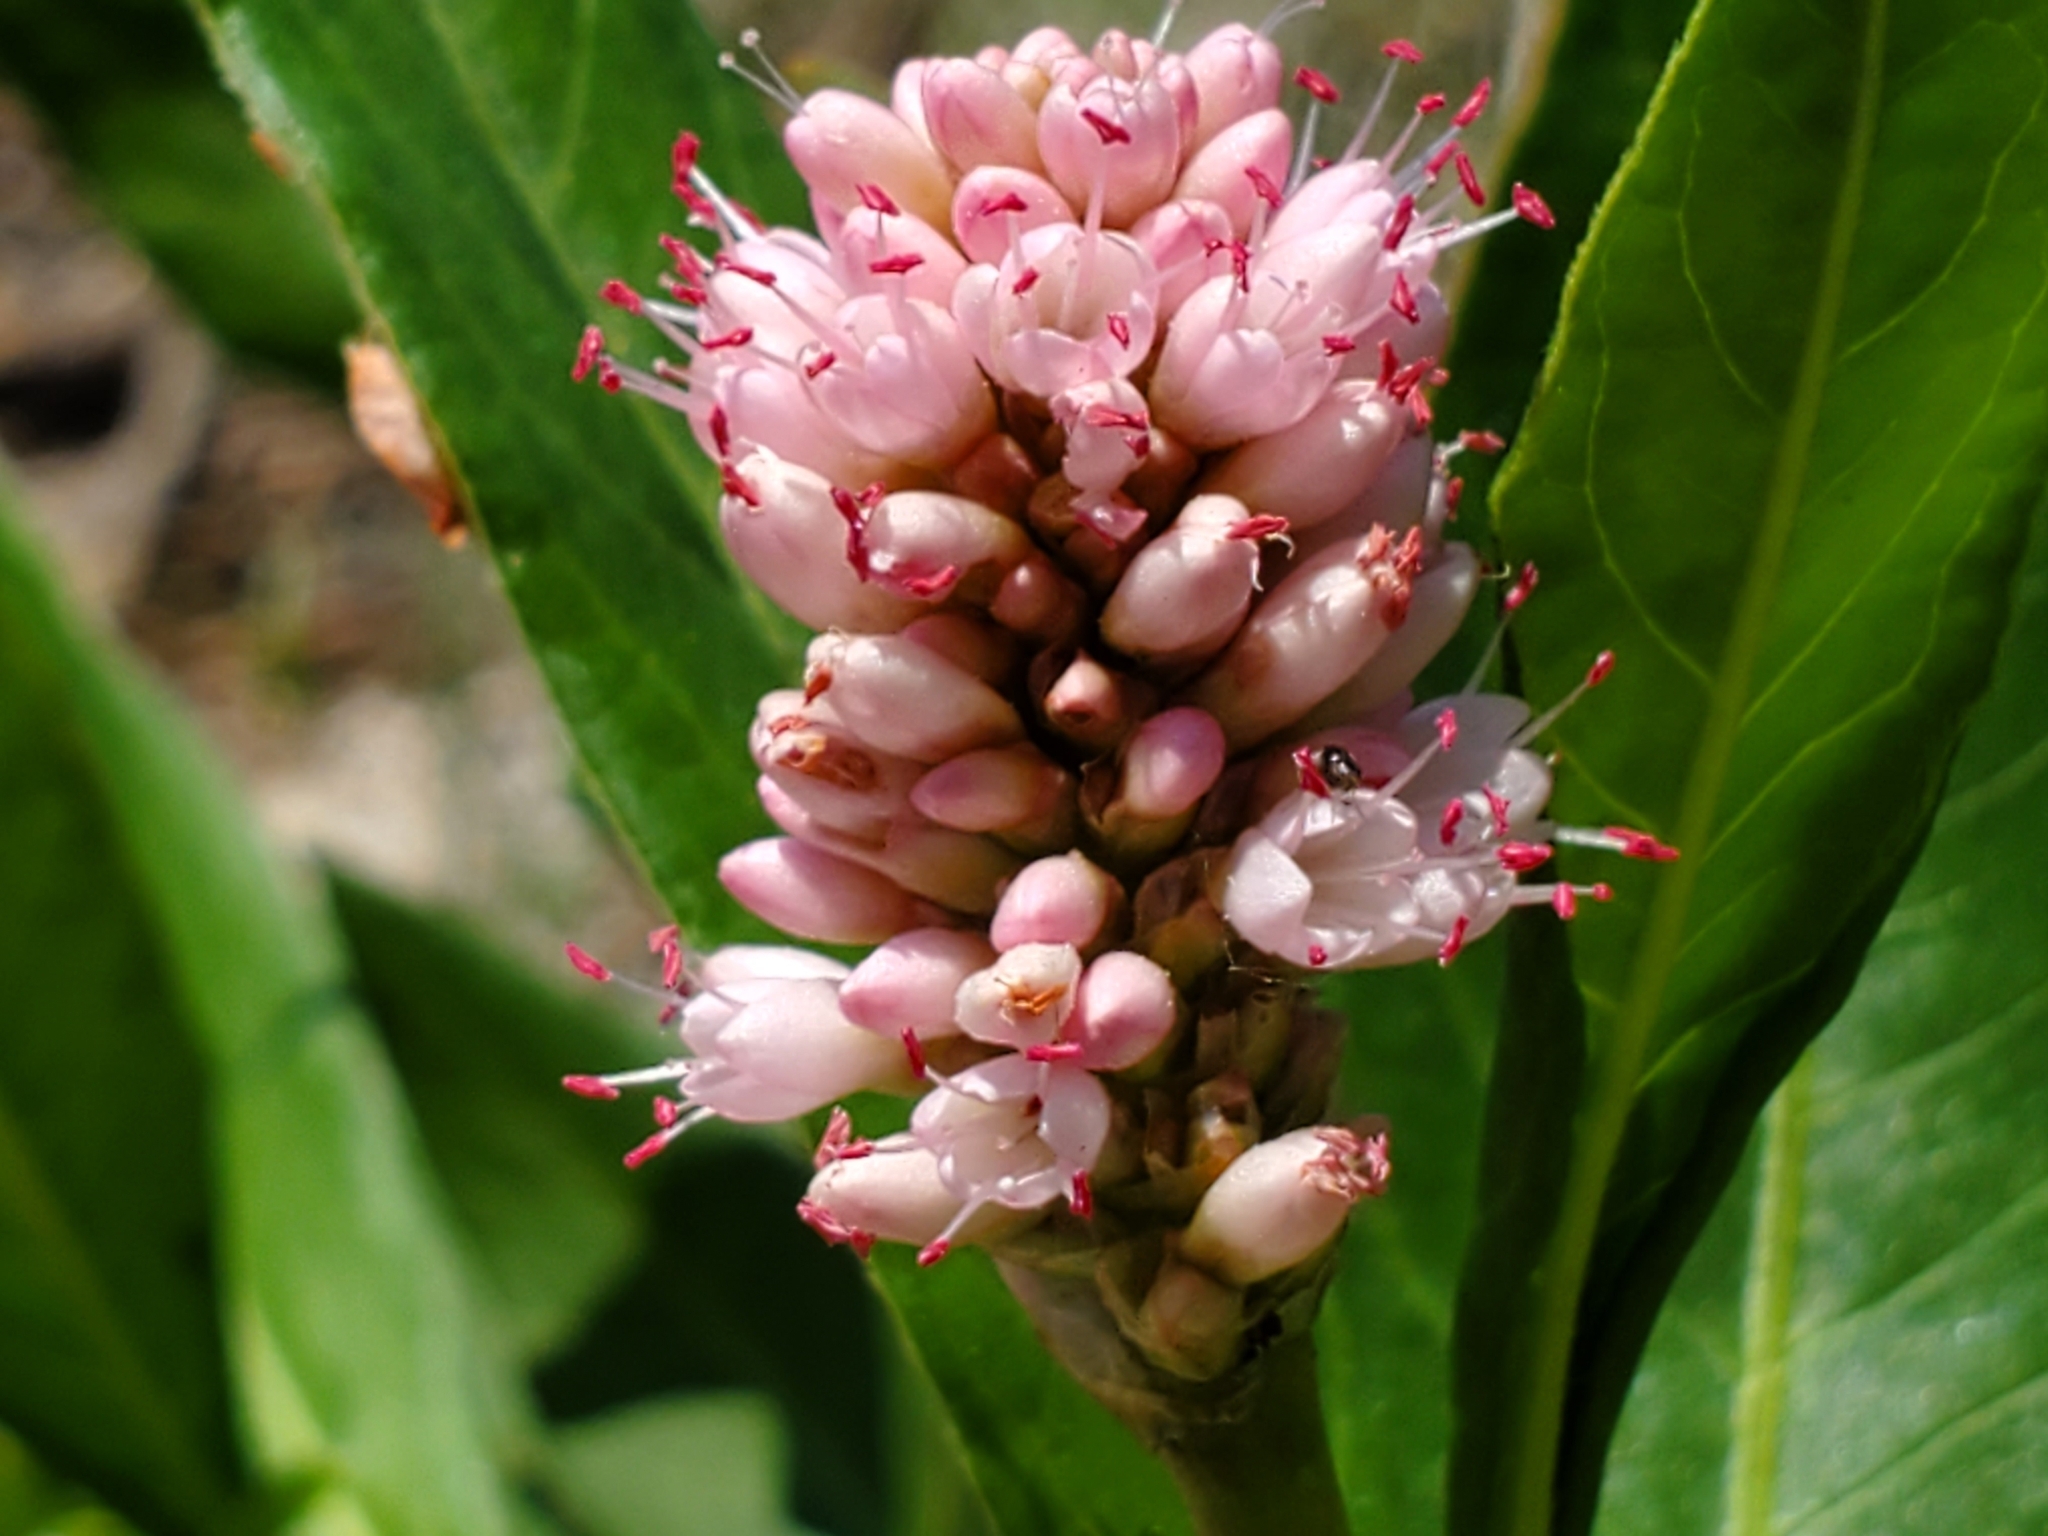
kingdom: Plantae
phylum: Tracheophyta
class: Magnoliopsida
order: Caryophyllales
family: Polygonaceae
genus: Persicaria
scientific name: Persicaria amphibia
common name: Amphibious bistort
